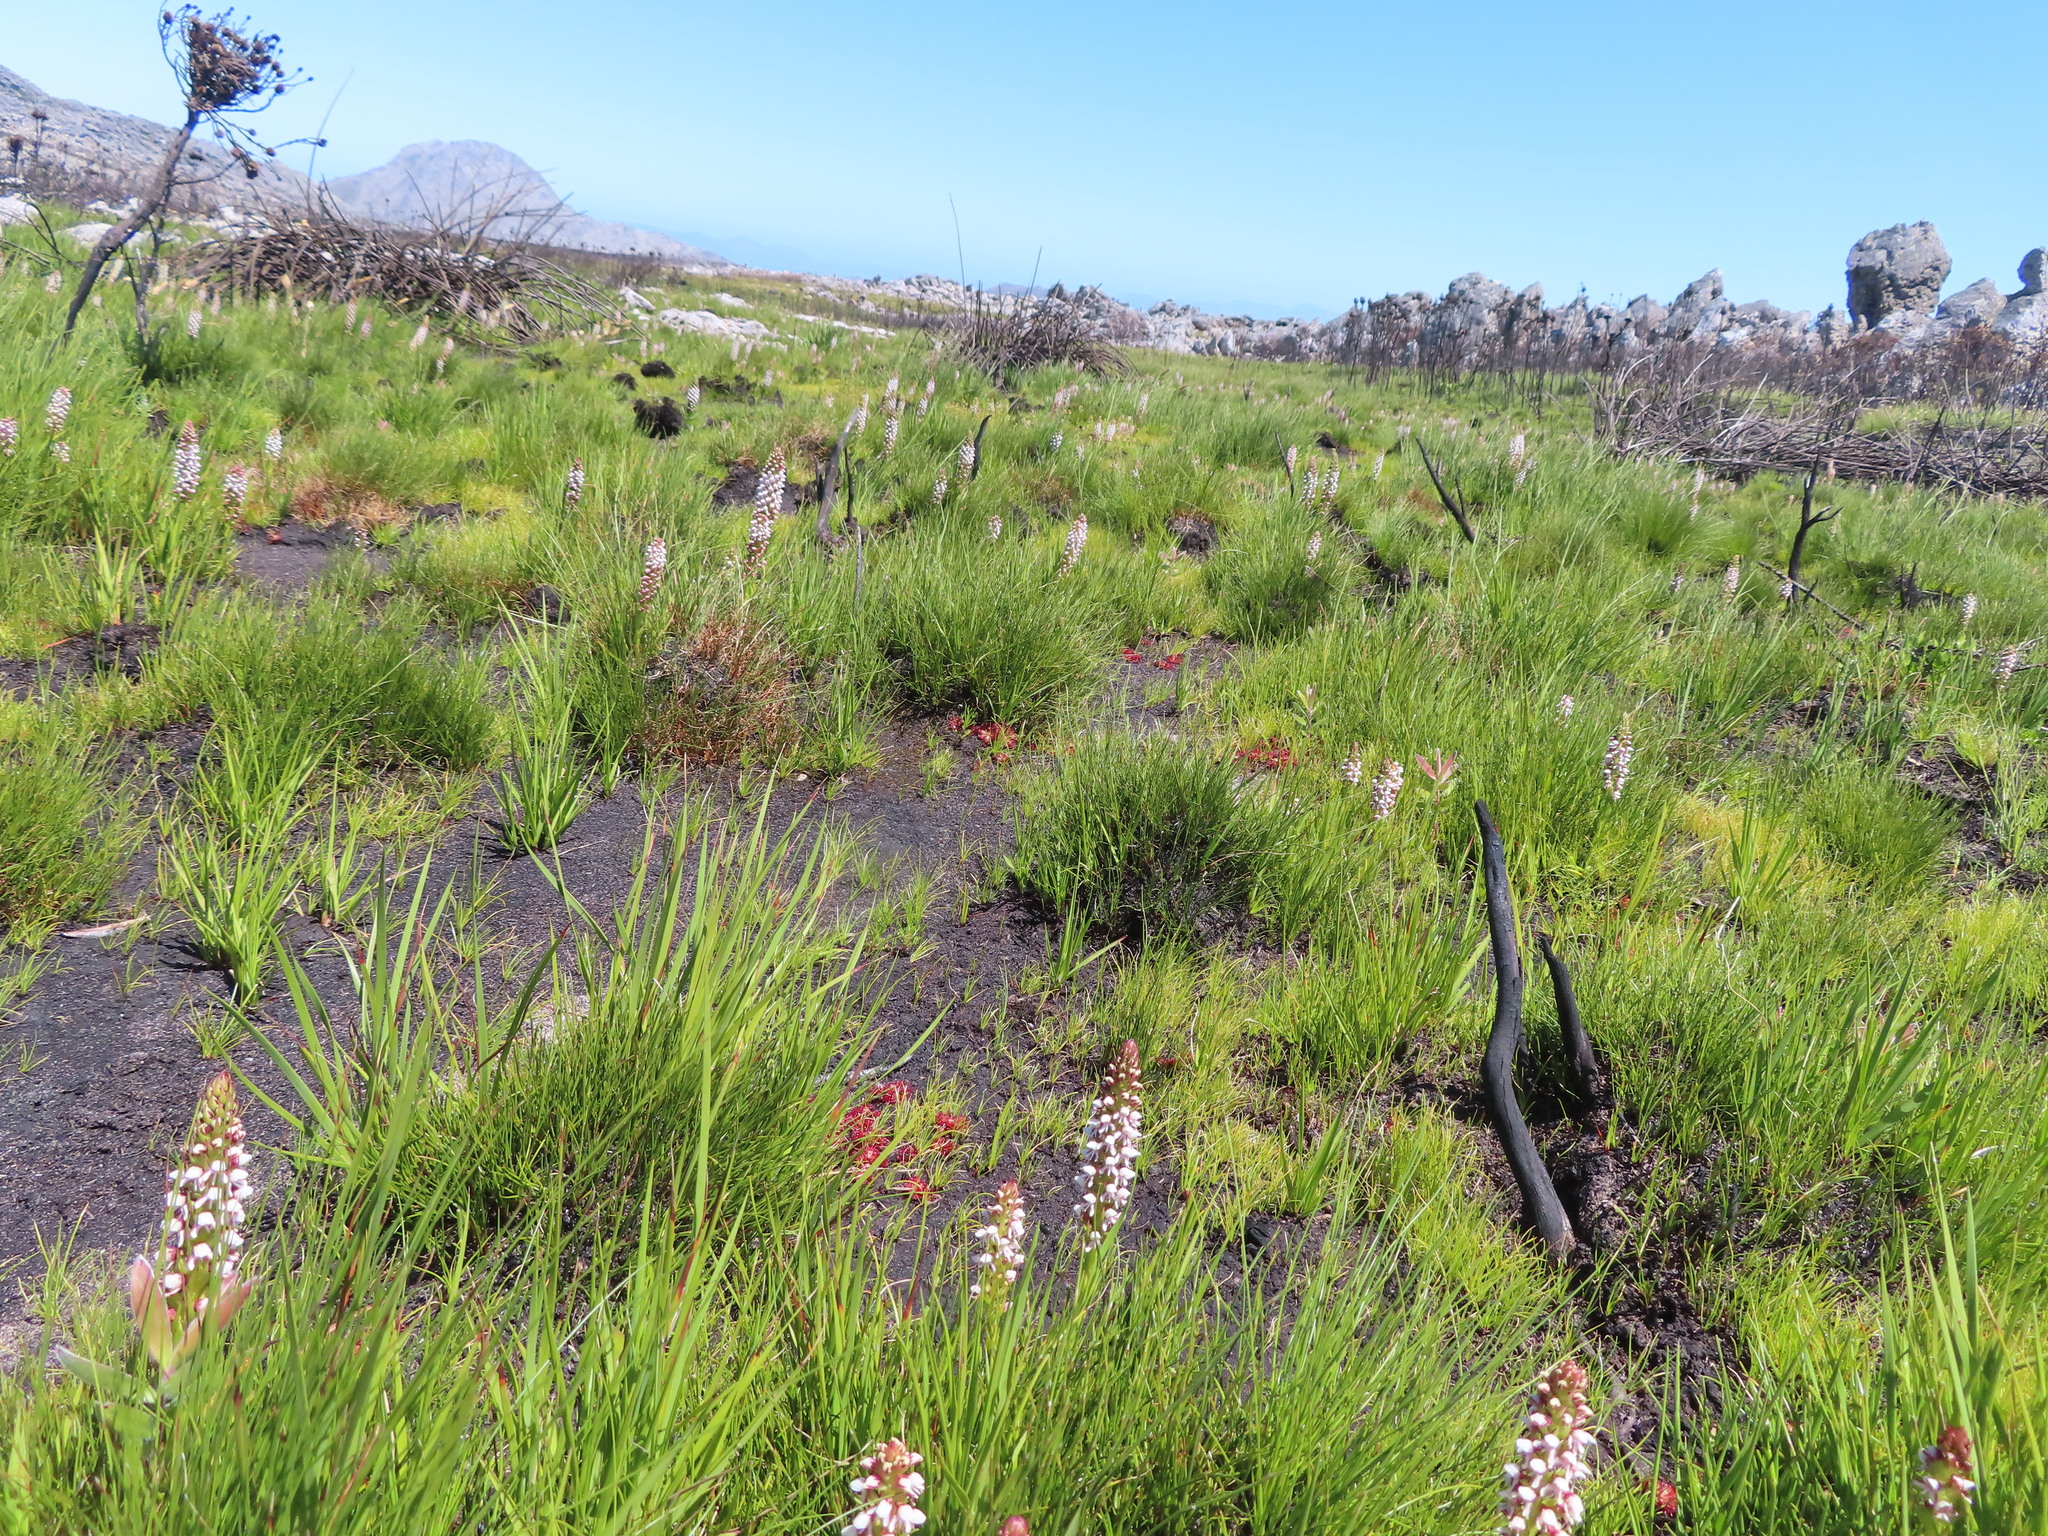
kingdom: Plantae
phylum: Tracheophyta
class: Liliopsida
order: Asparagales
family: Orchidaceae
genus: Disa
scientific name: Disa obtusa
